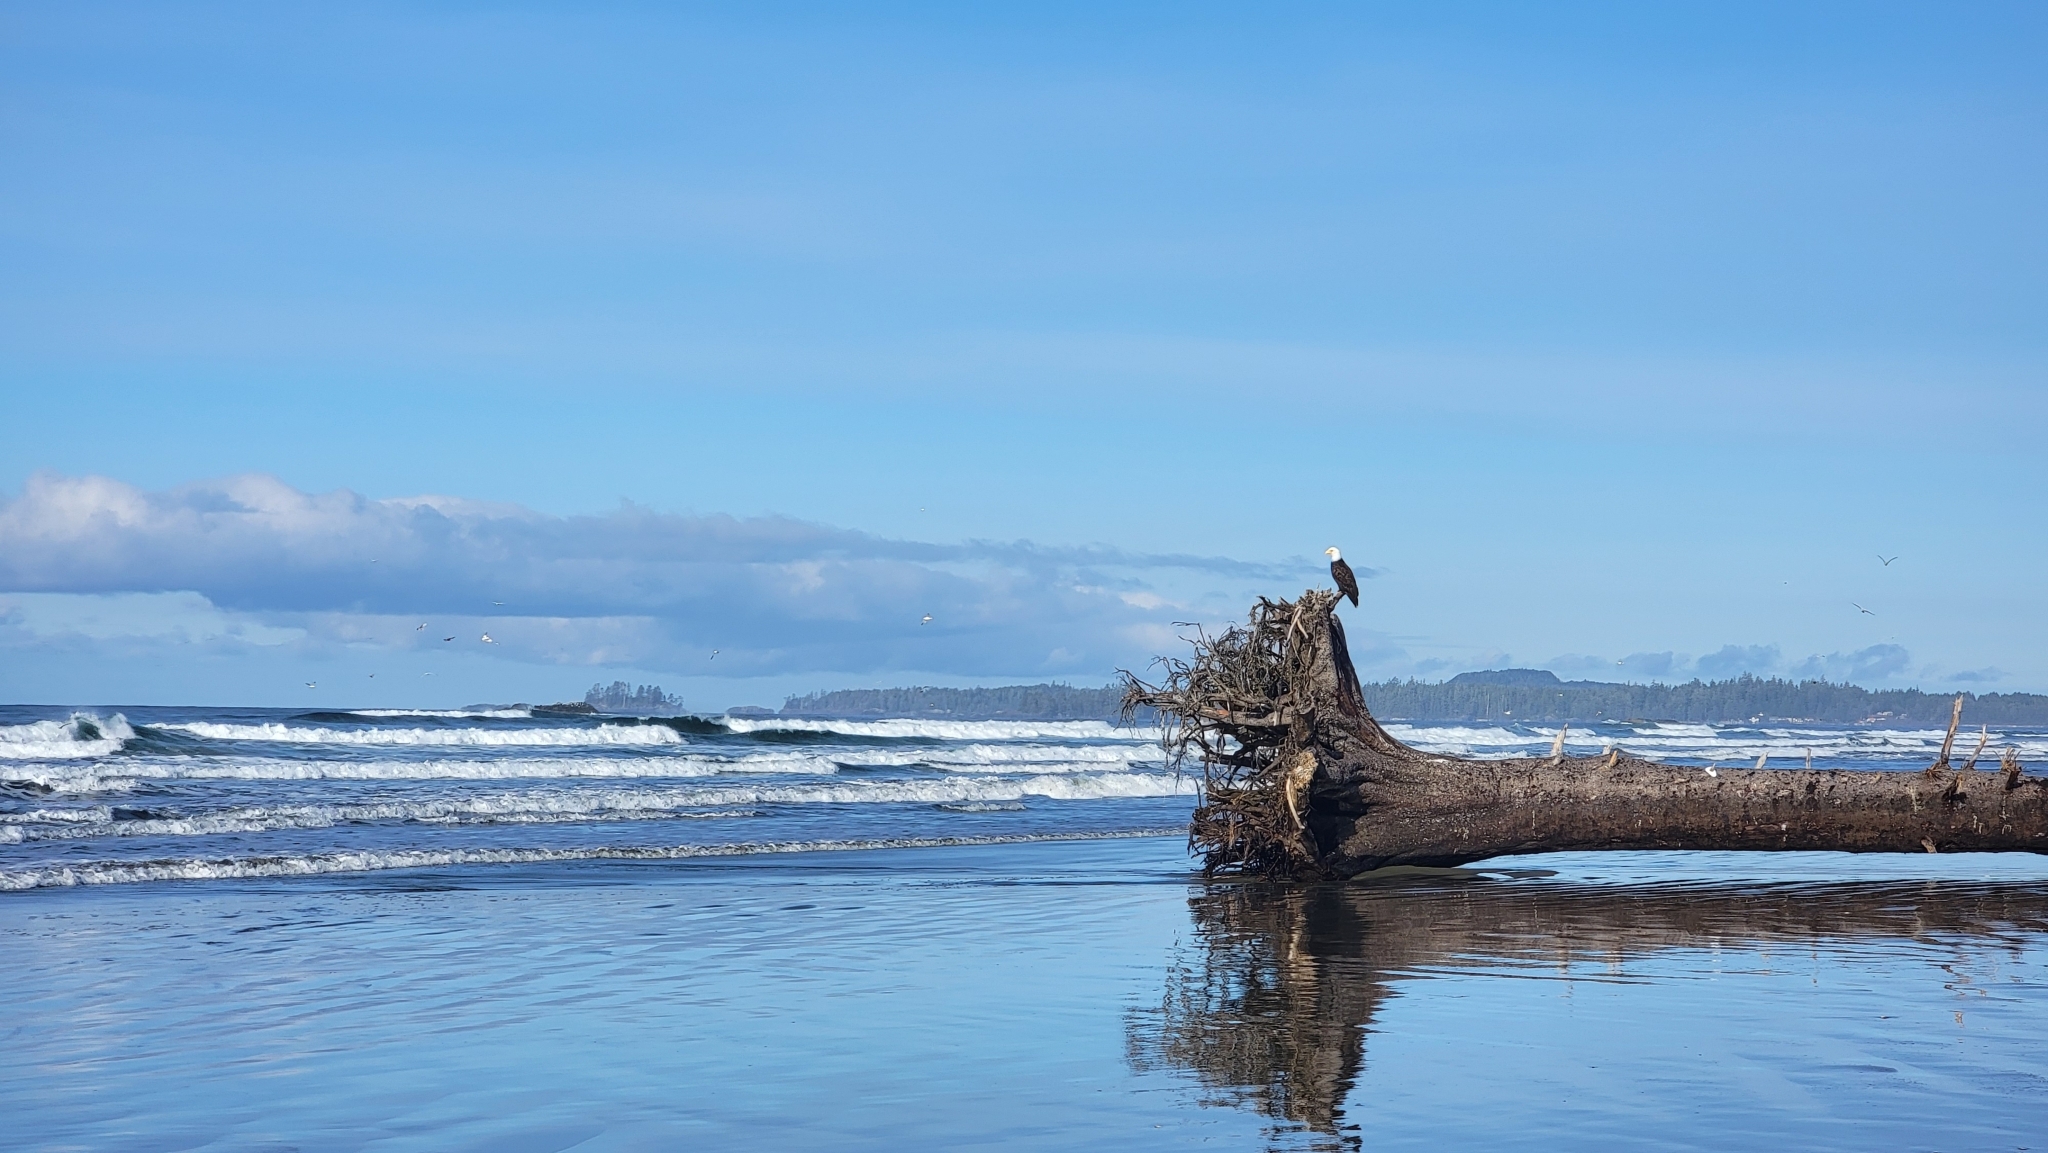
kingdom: Animalia
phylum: Chordata
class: Aves
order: Accipitriformes
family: Accipitridae
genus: Haliaeetus
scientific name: Haliaeetus leucocephalus
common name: Bald eagle
